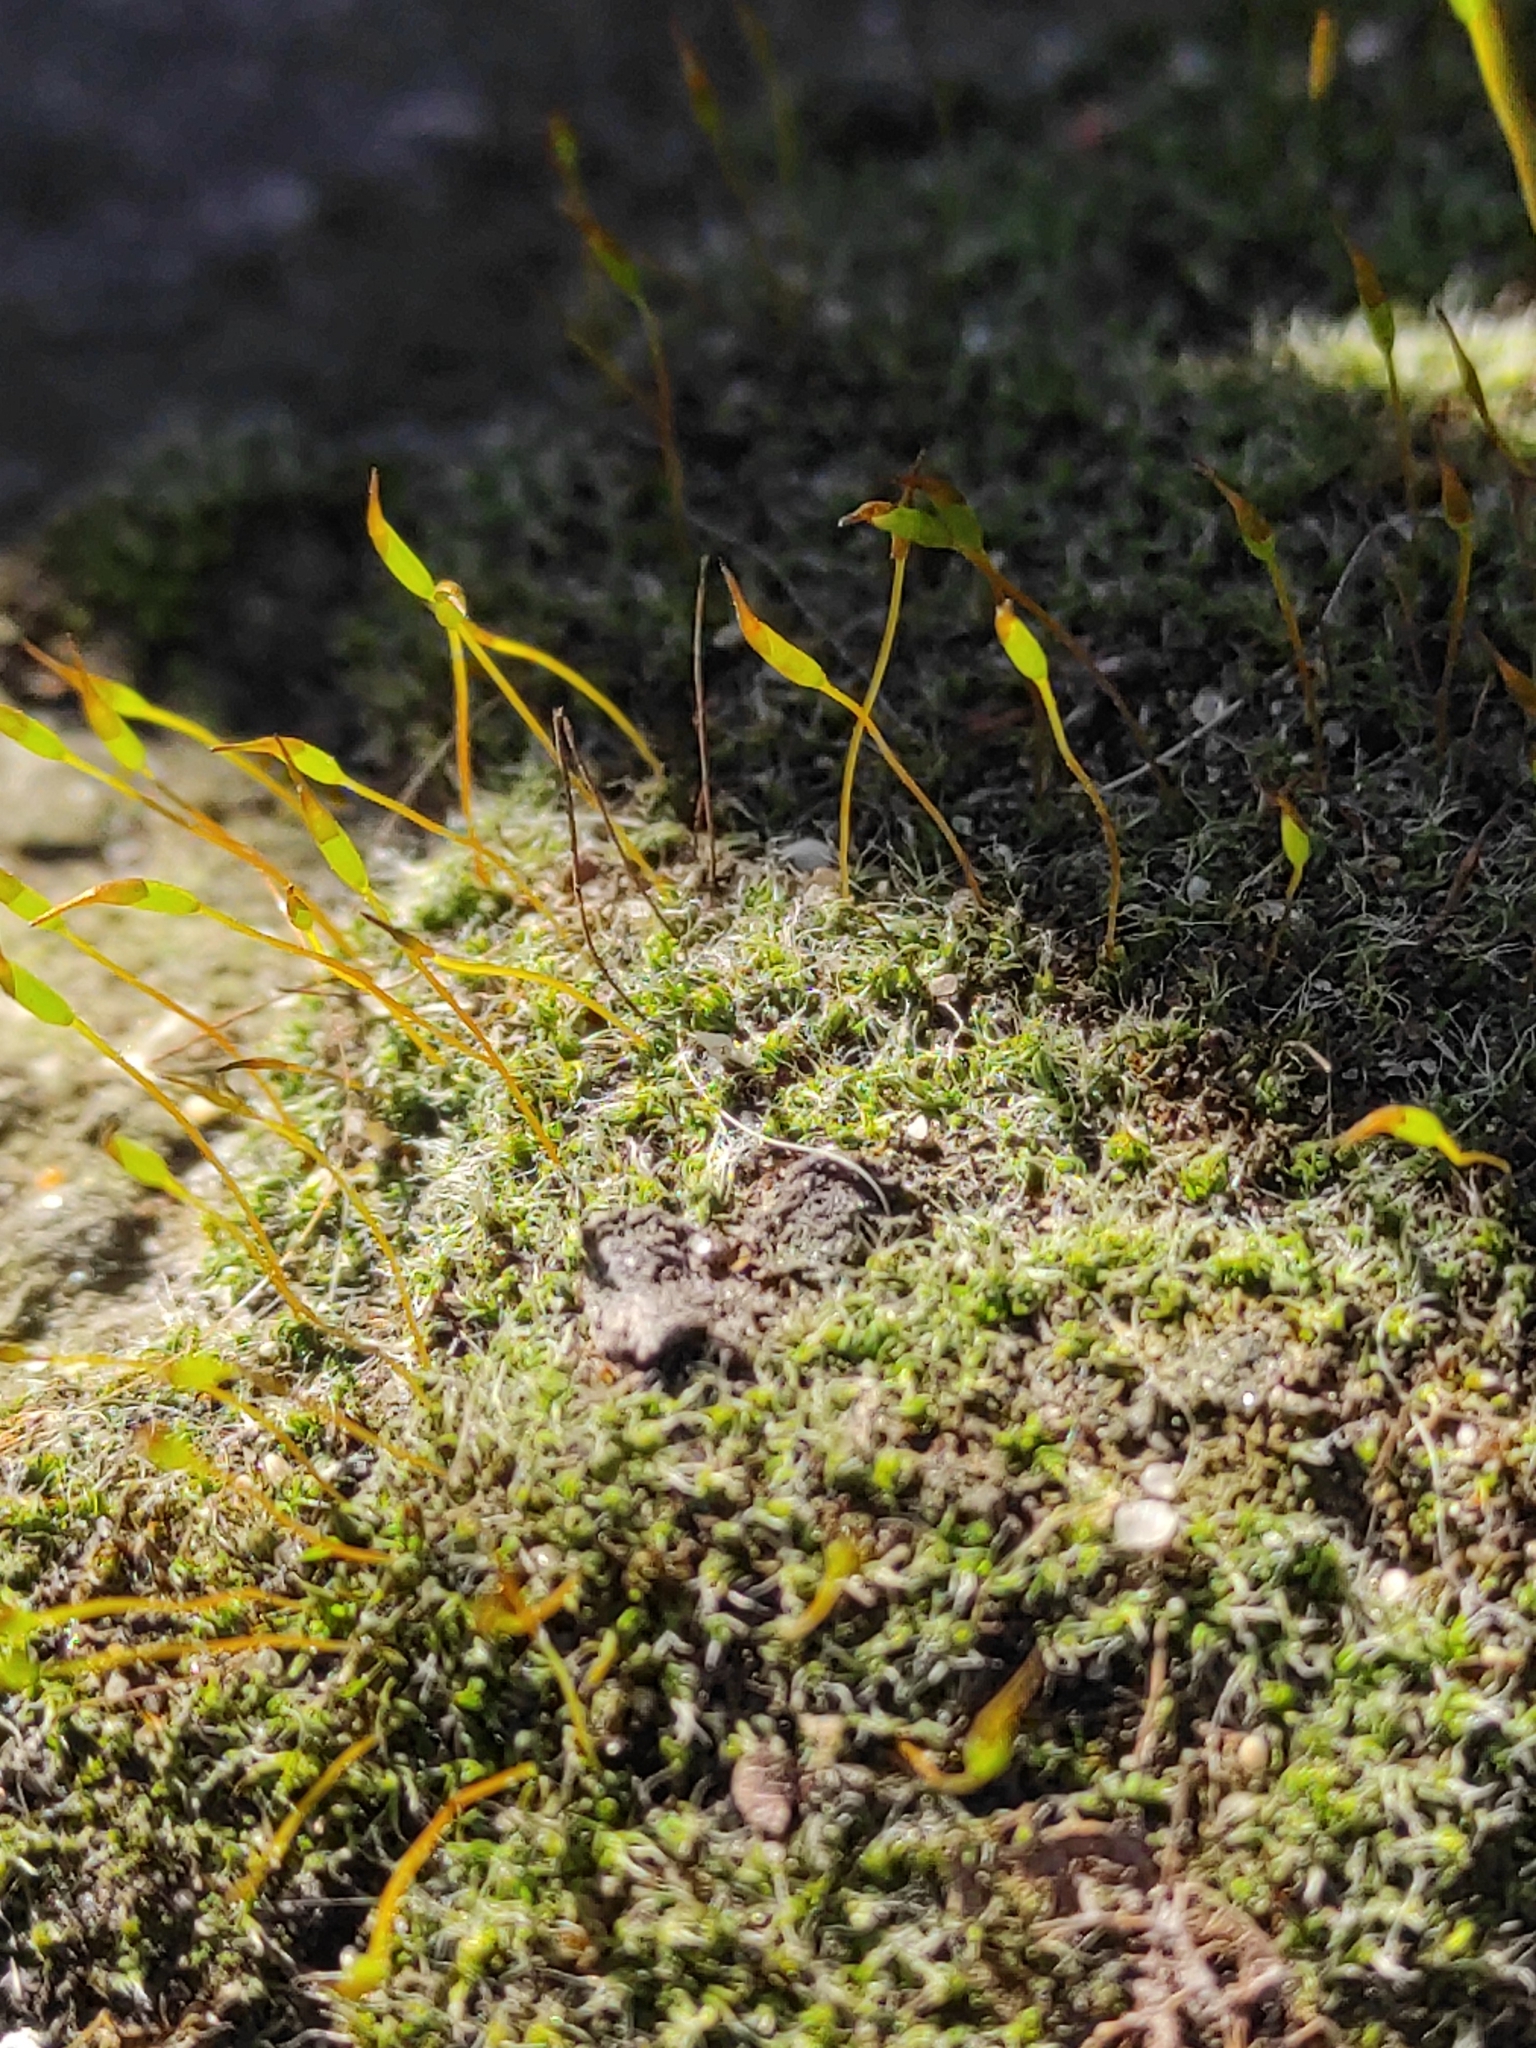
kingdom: Plantae
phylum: Bryophyta
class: Bryopsida
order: Pottiales
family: Pottiaceae
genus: Tortula
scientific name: Tortula muralis
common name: Wall screw-moss
